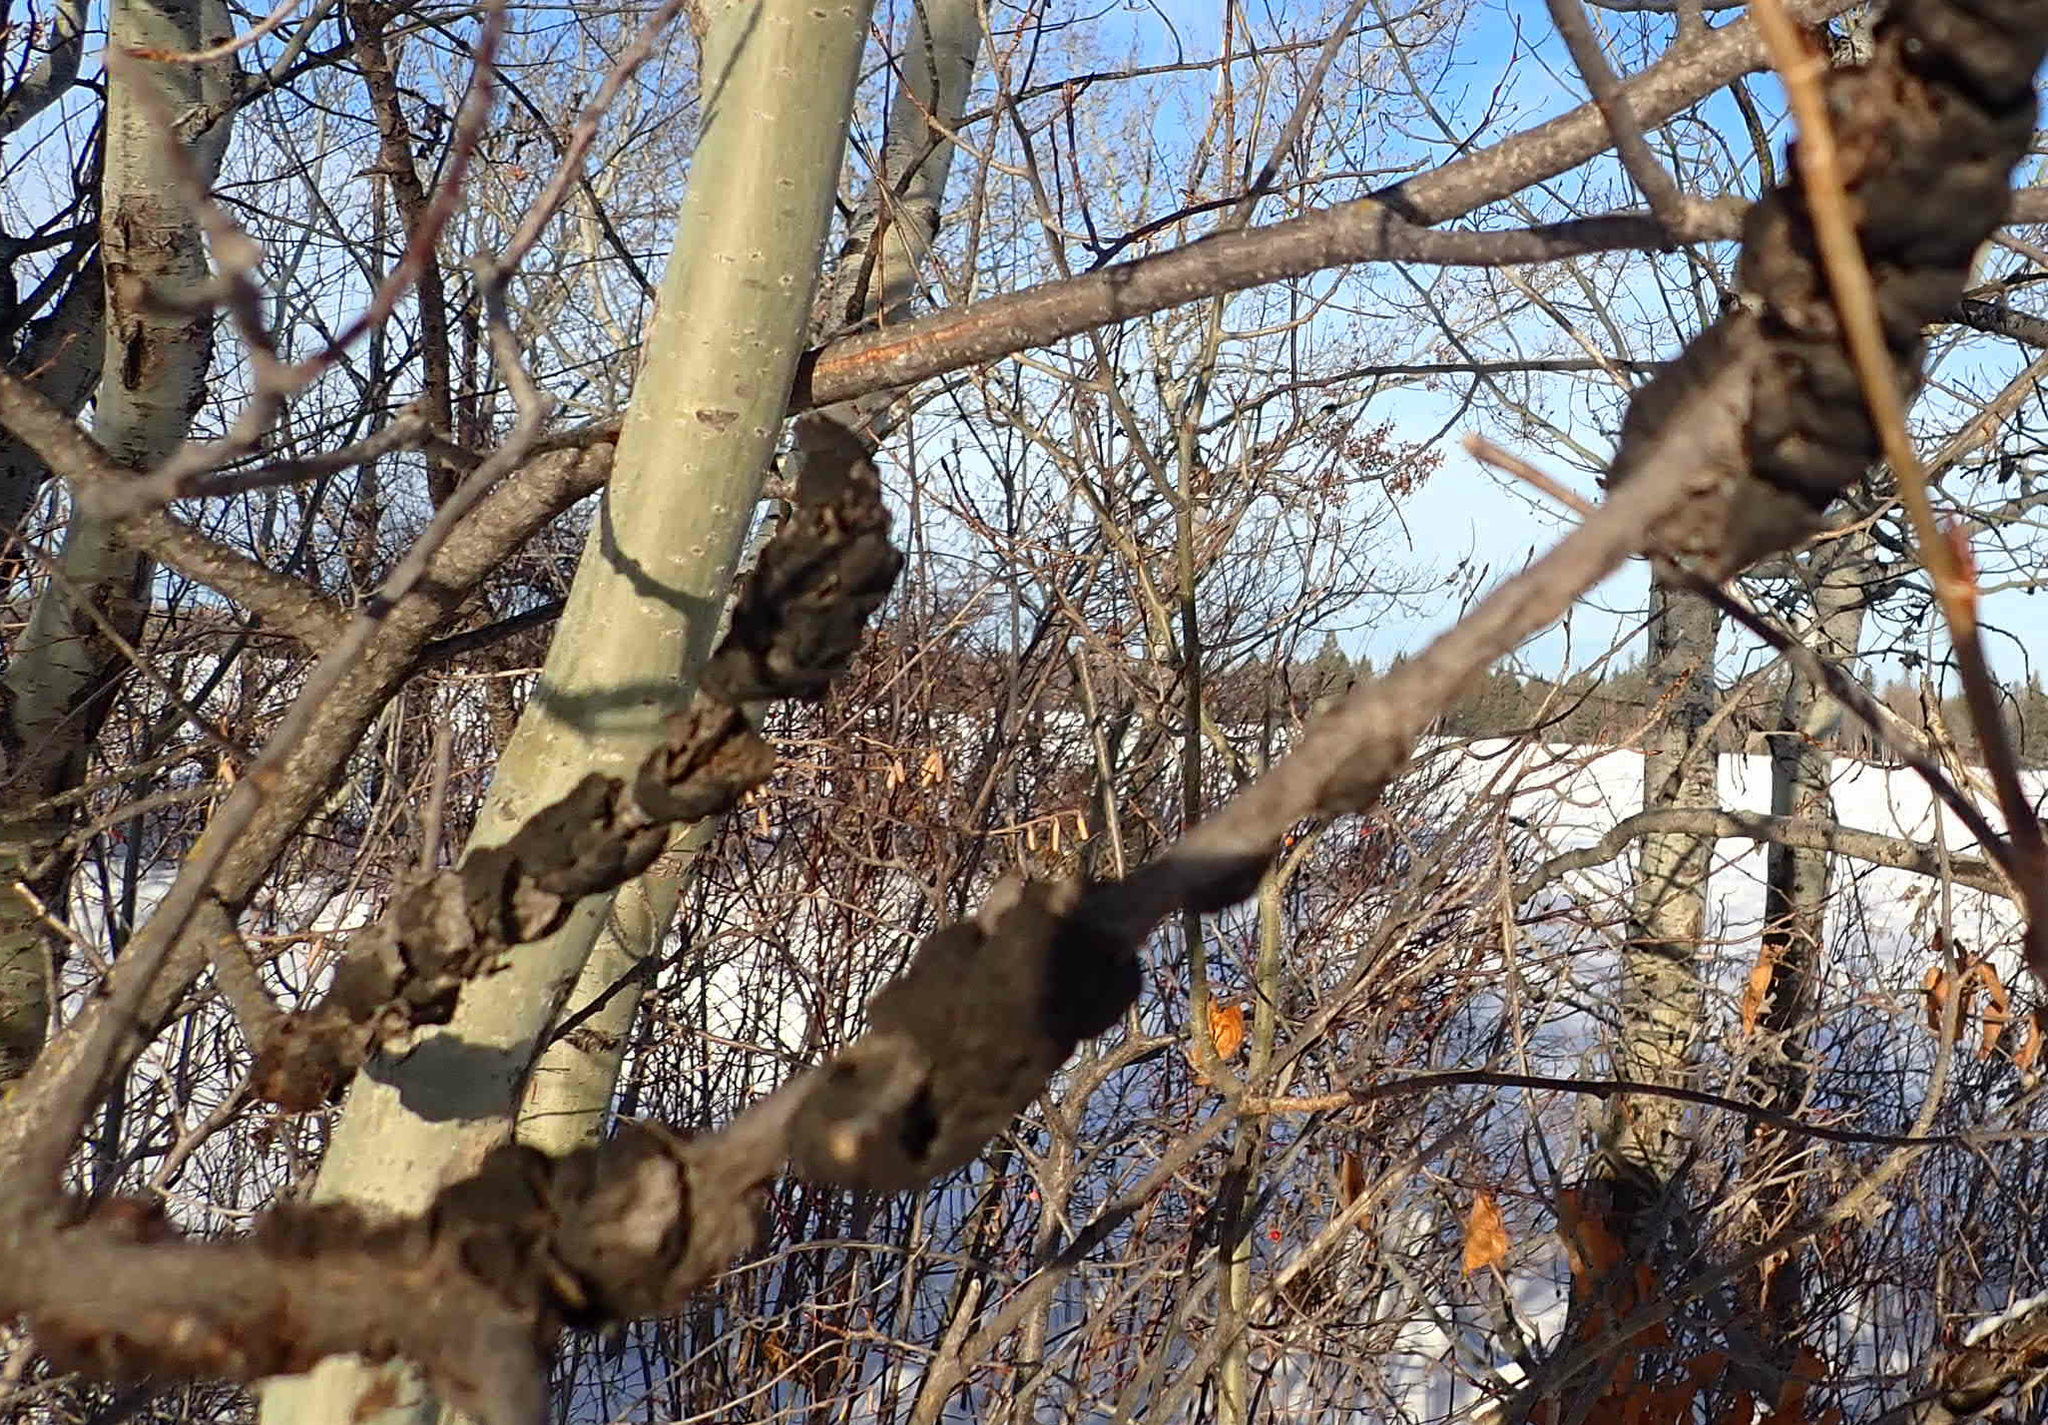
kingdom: Fungi
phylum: Ascomycota
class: Dothideomycetes
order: Venturiales
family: Venturiaceae
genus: Apiosporina
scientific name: Apiosporina morbosa
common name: Black knot
